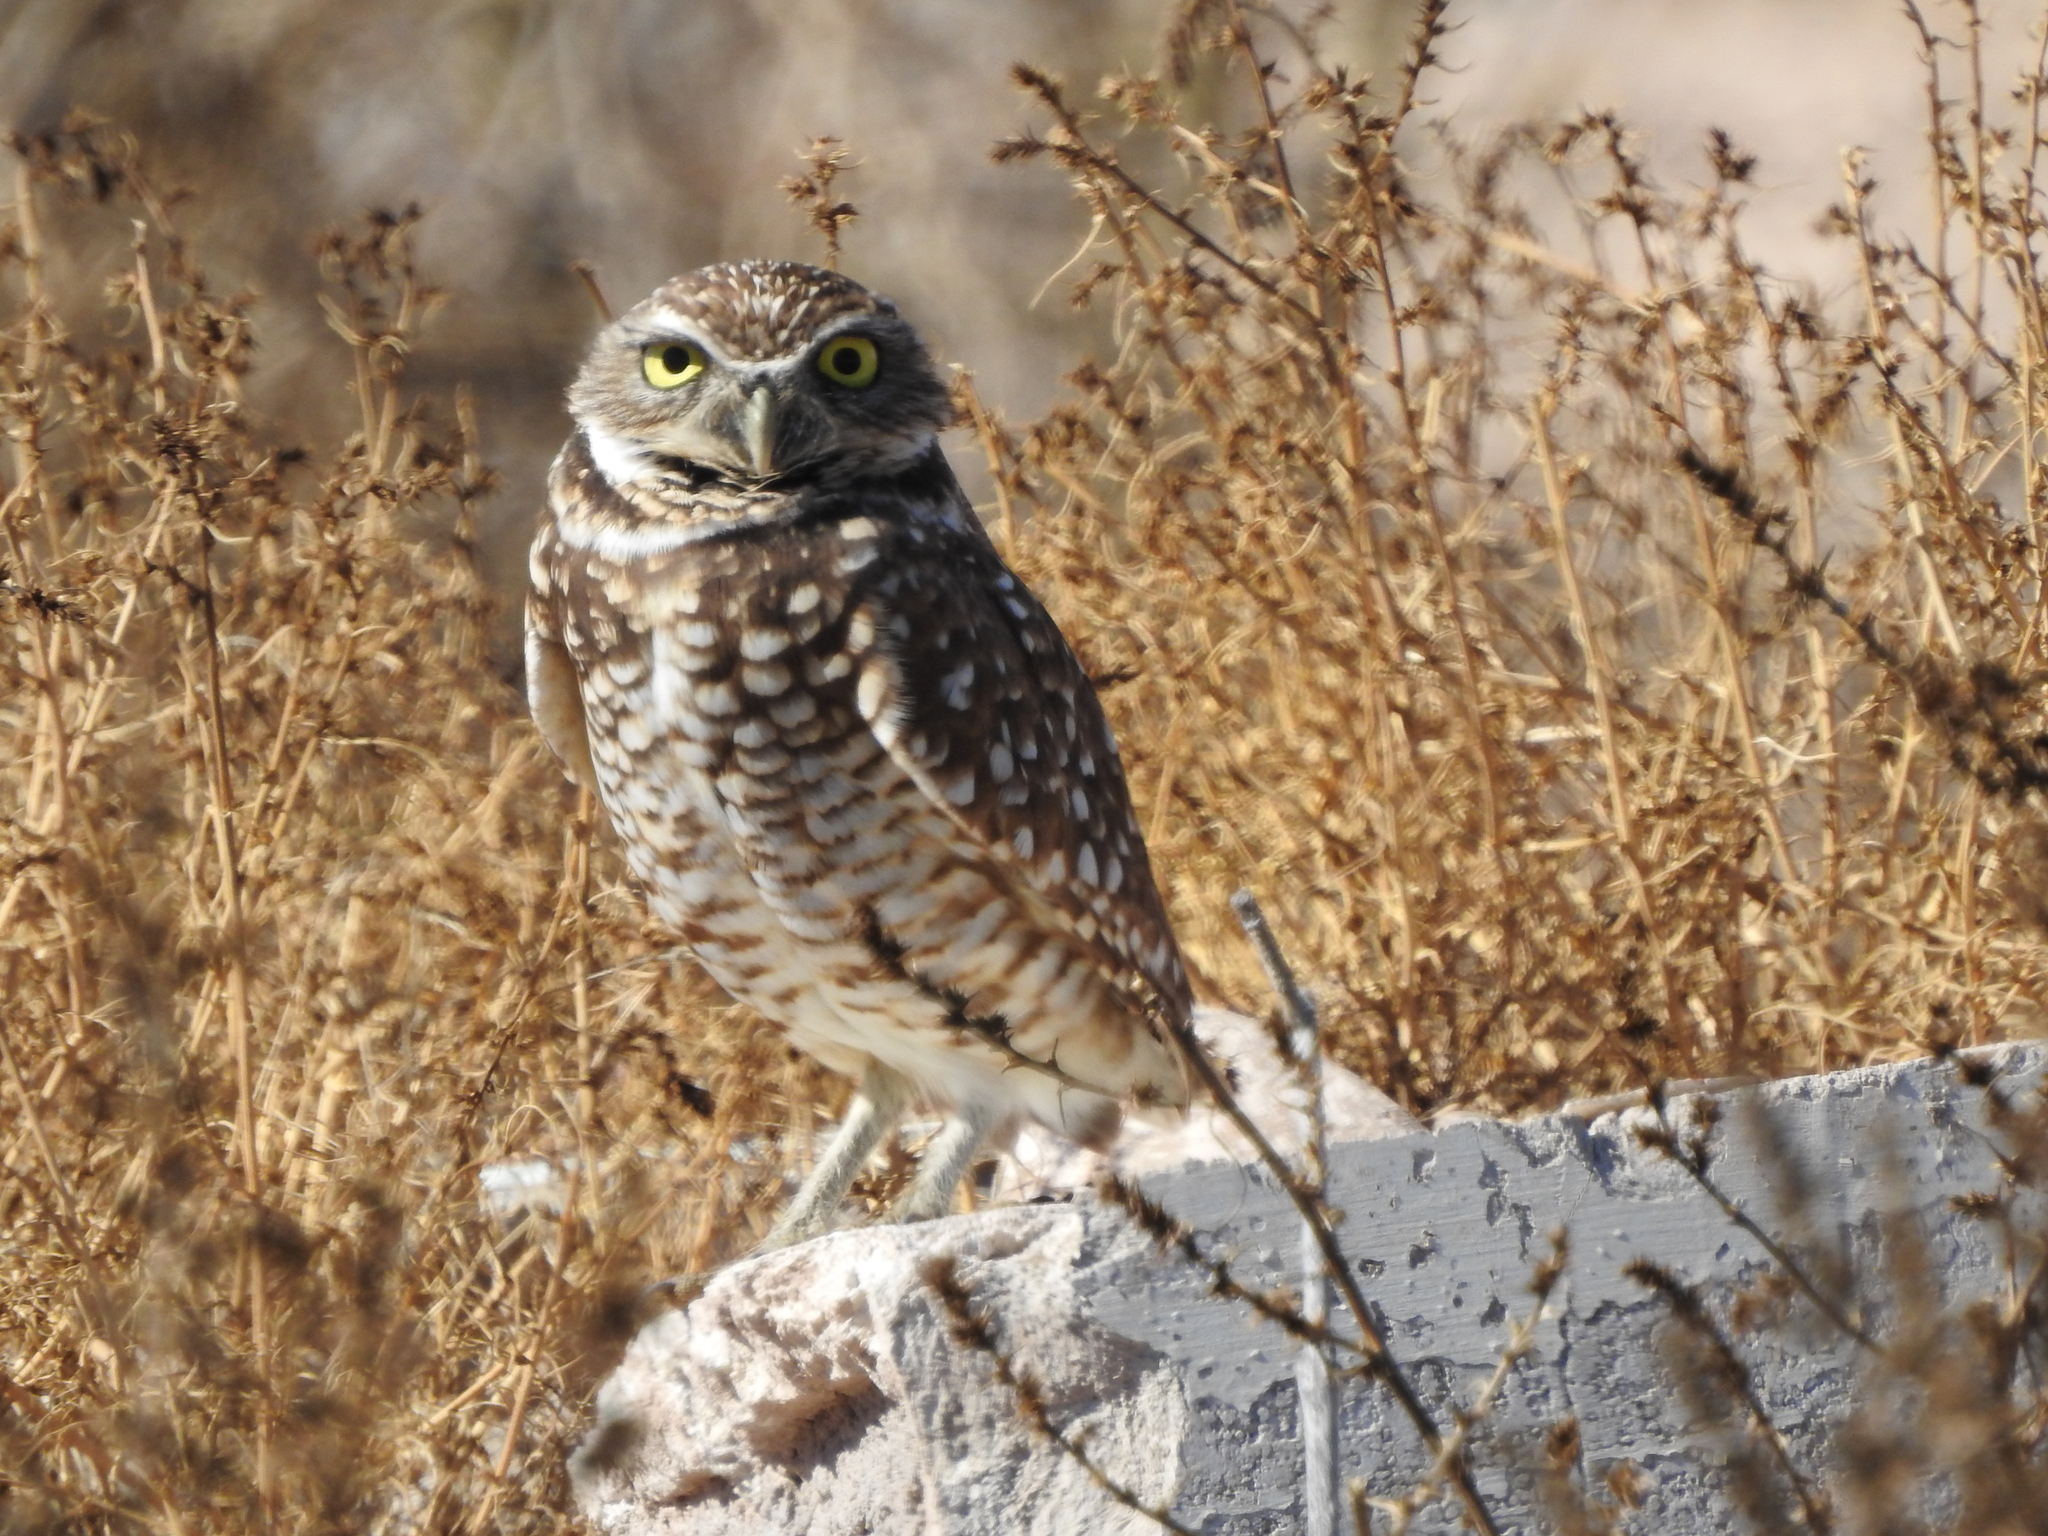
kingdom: Animalia
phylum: Chordata
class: Aves
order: Strigiformes
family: Strigidae
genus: Athene
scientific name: Athene cunicularia
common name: Burrowing owl
